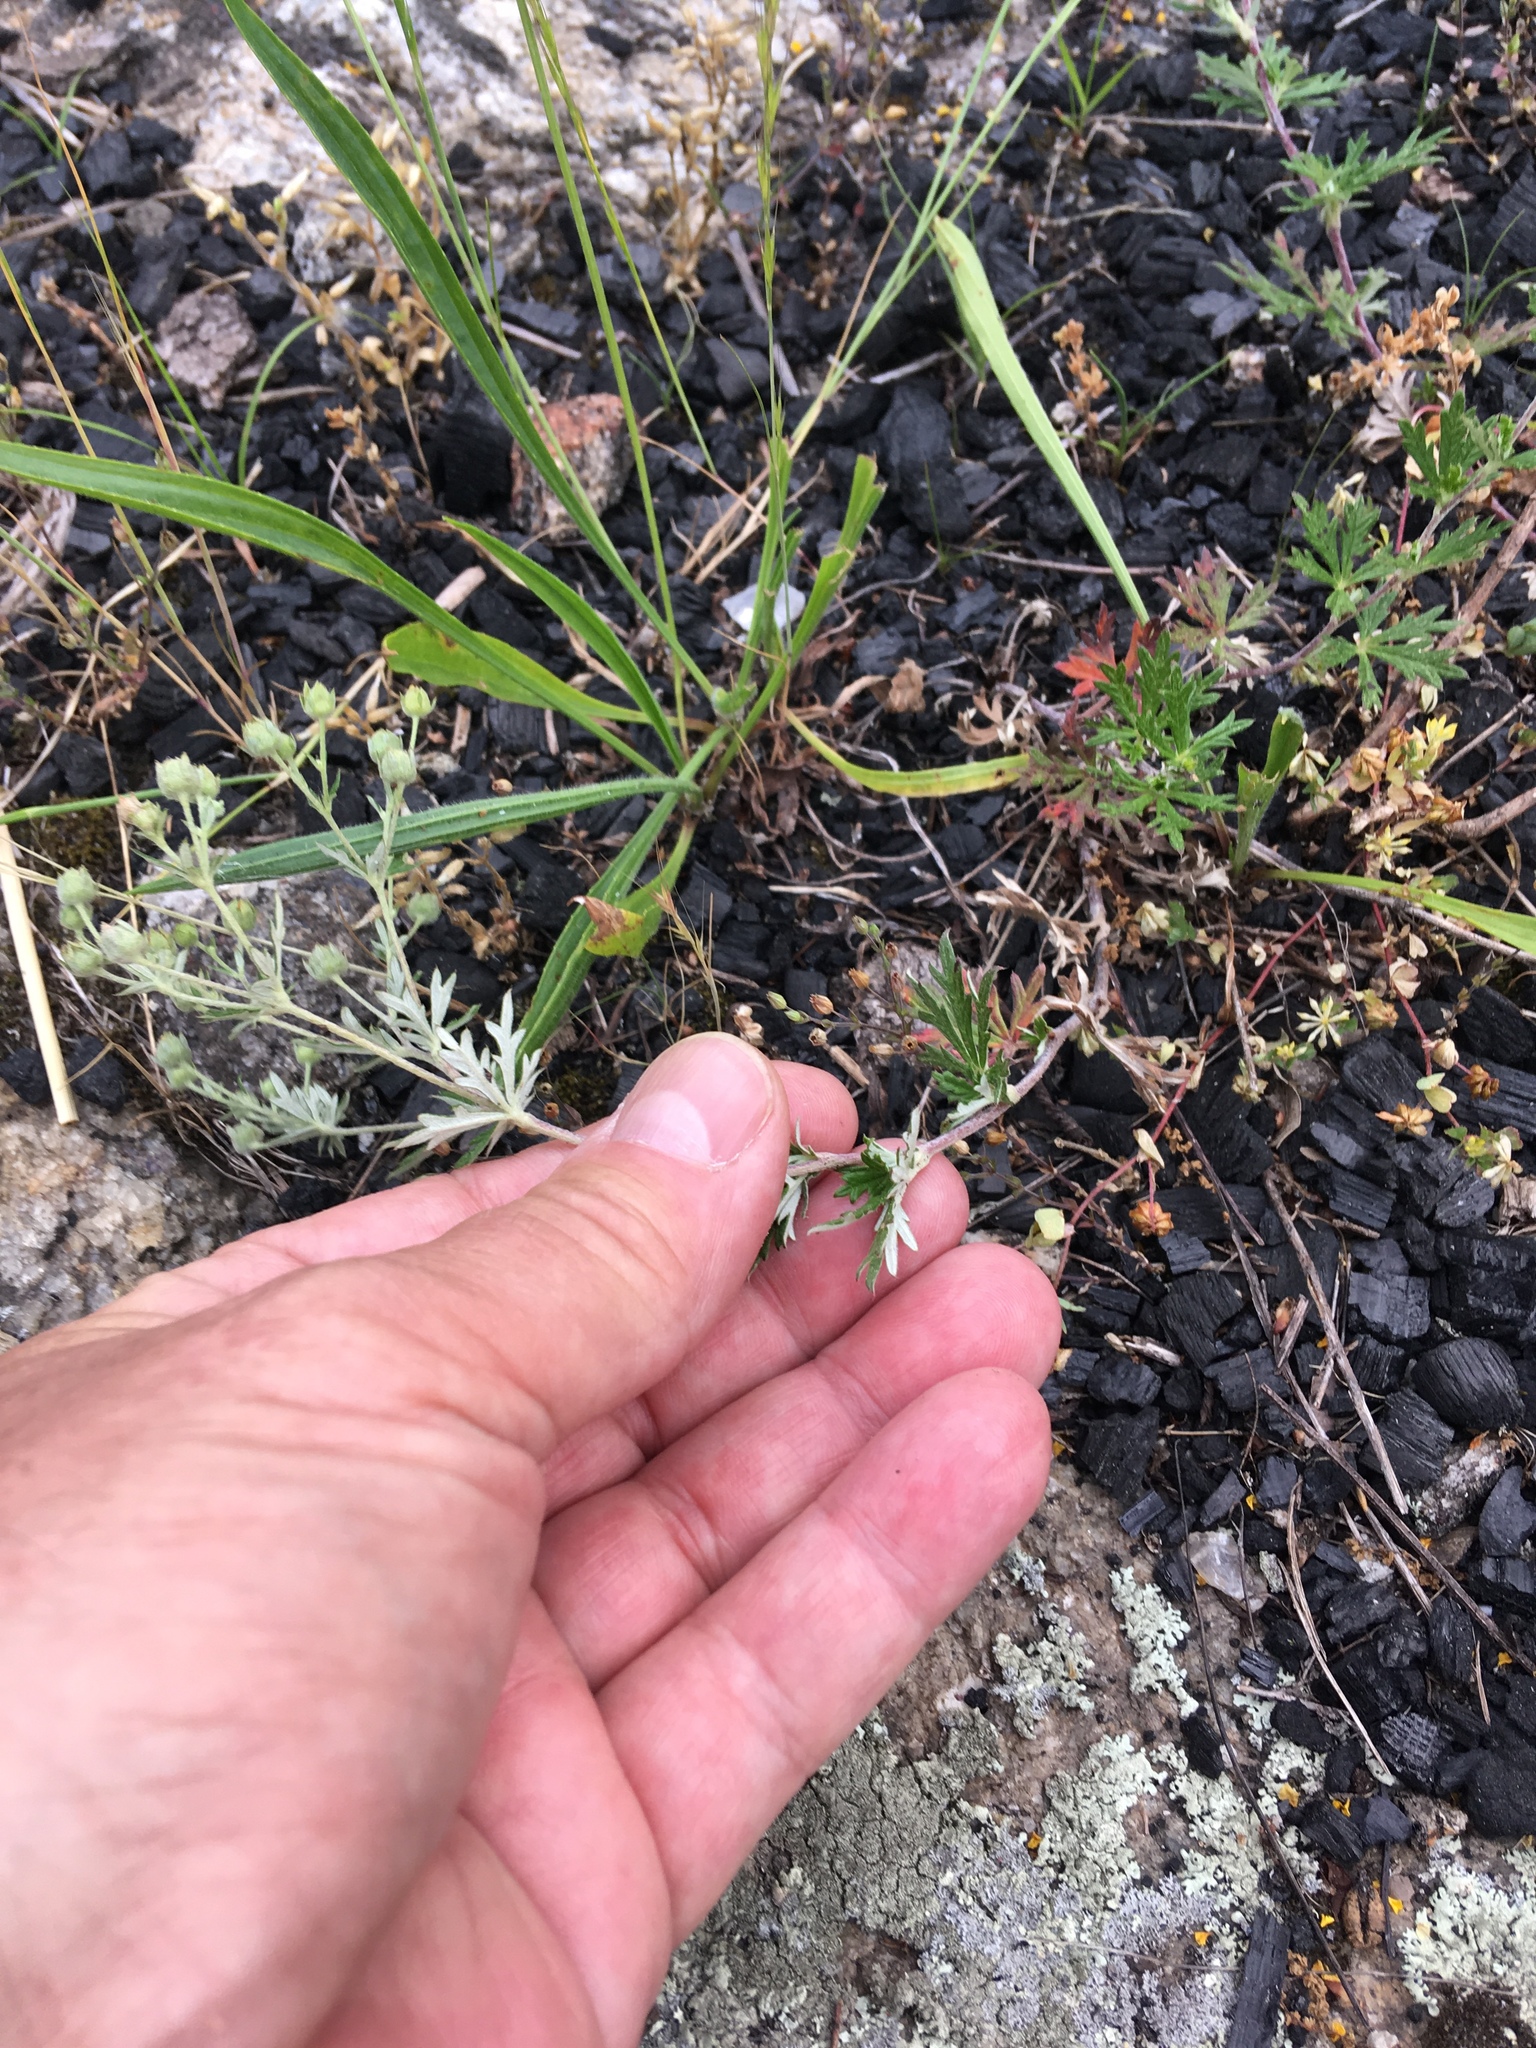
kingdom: Plantae
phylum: Tracheophyta
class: Magnoliopsida
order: Rosales
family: Rosaceae
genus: Potentilla
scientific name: Potentilla argentea
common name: Hoary cinquefoil
